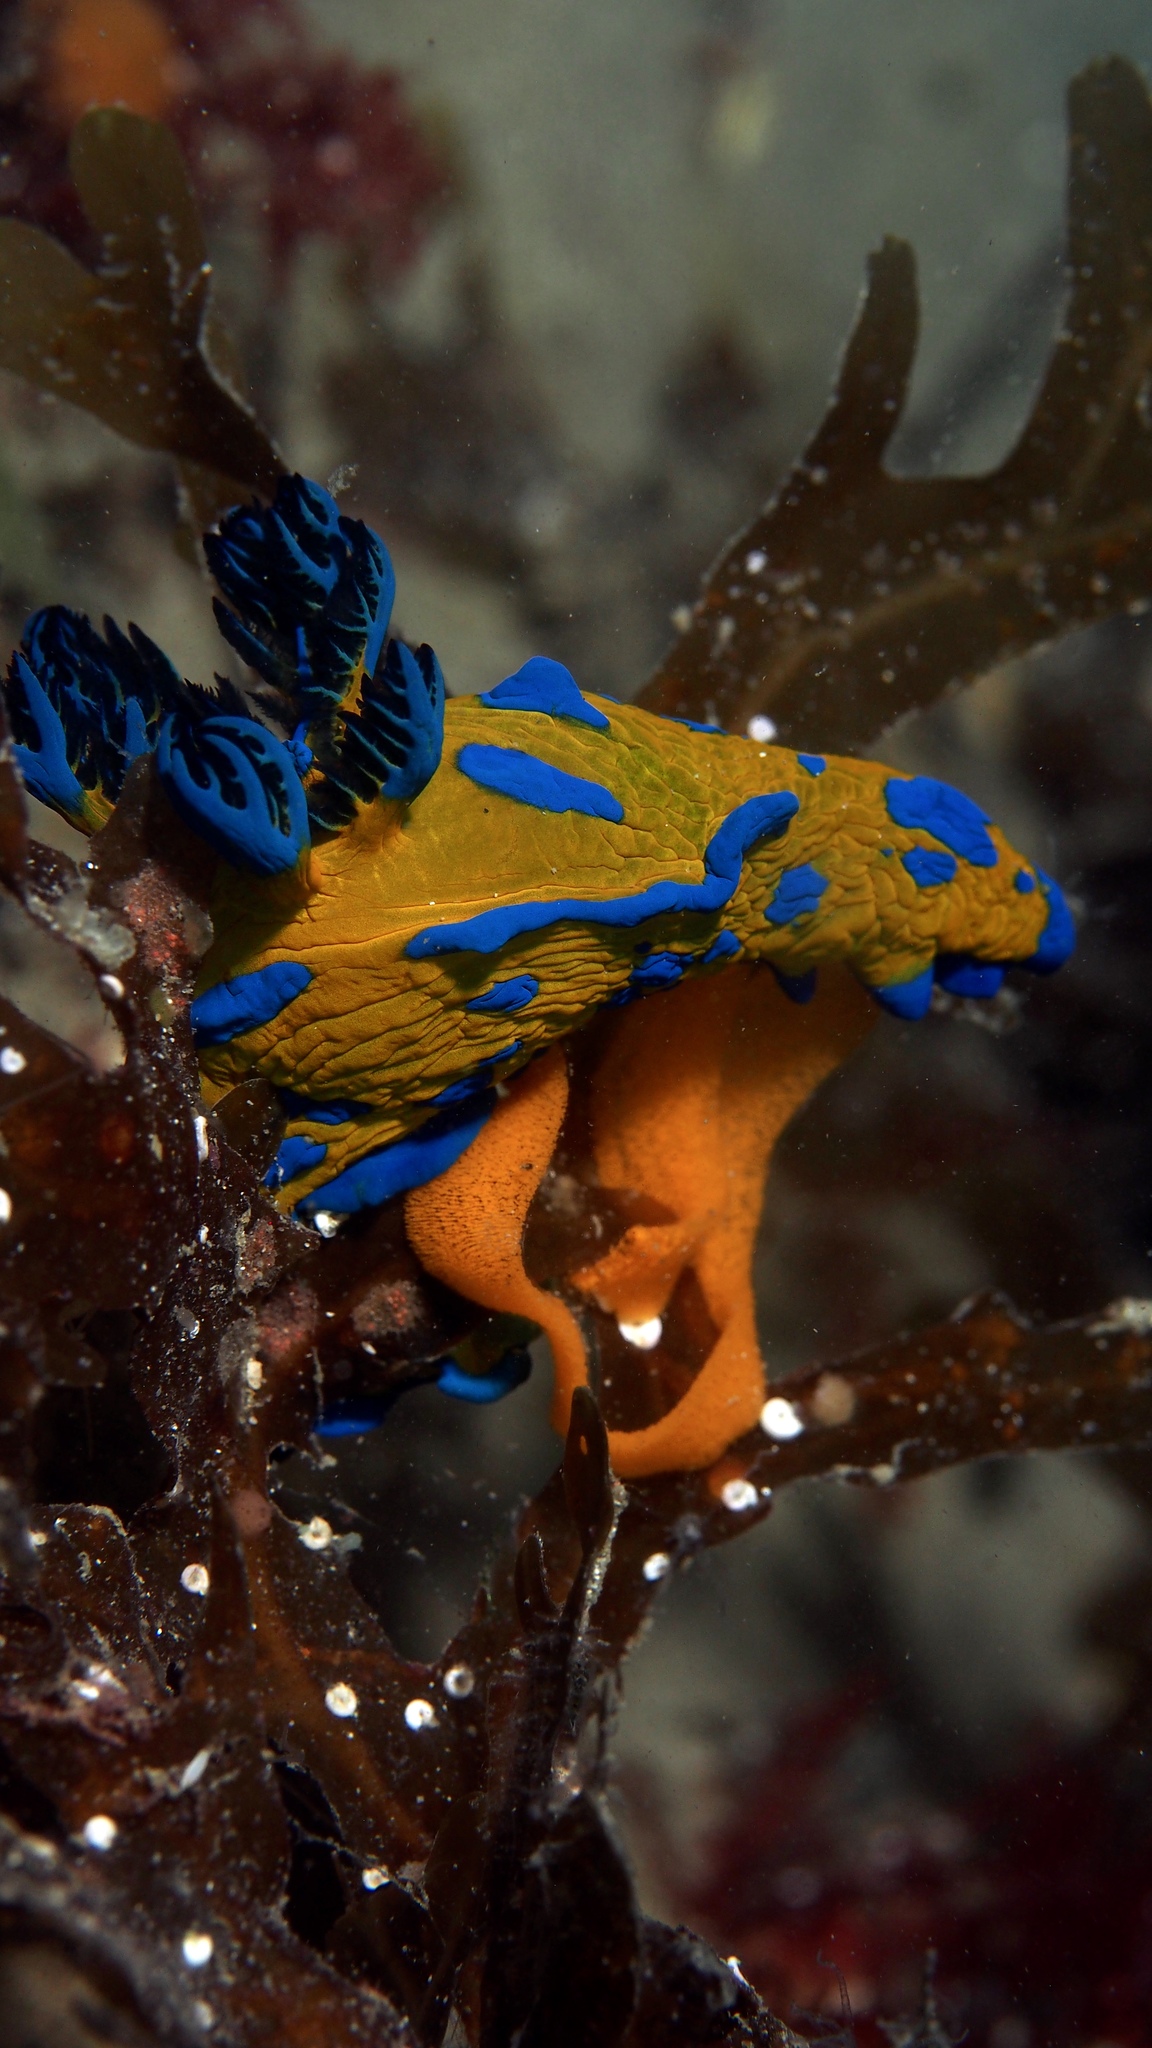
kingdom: Animalia
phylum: Mollusca
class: Gastropoda
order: Nudibranchia
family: Polyceridae
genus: Tambja
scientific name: Tambja verconis
